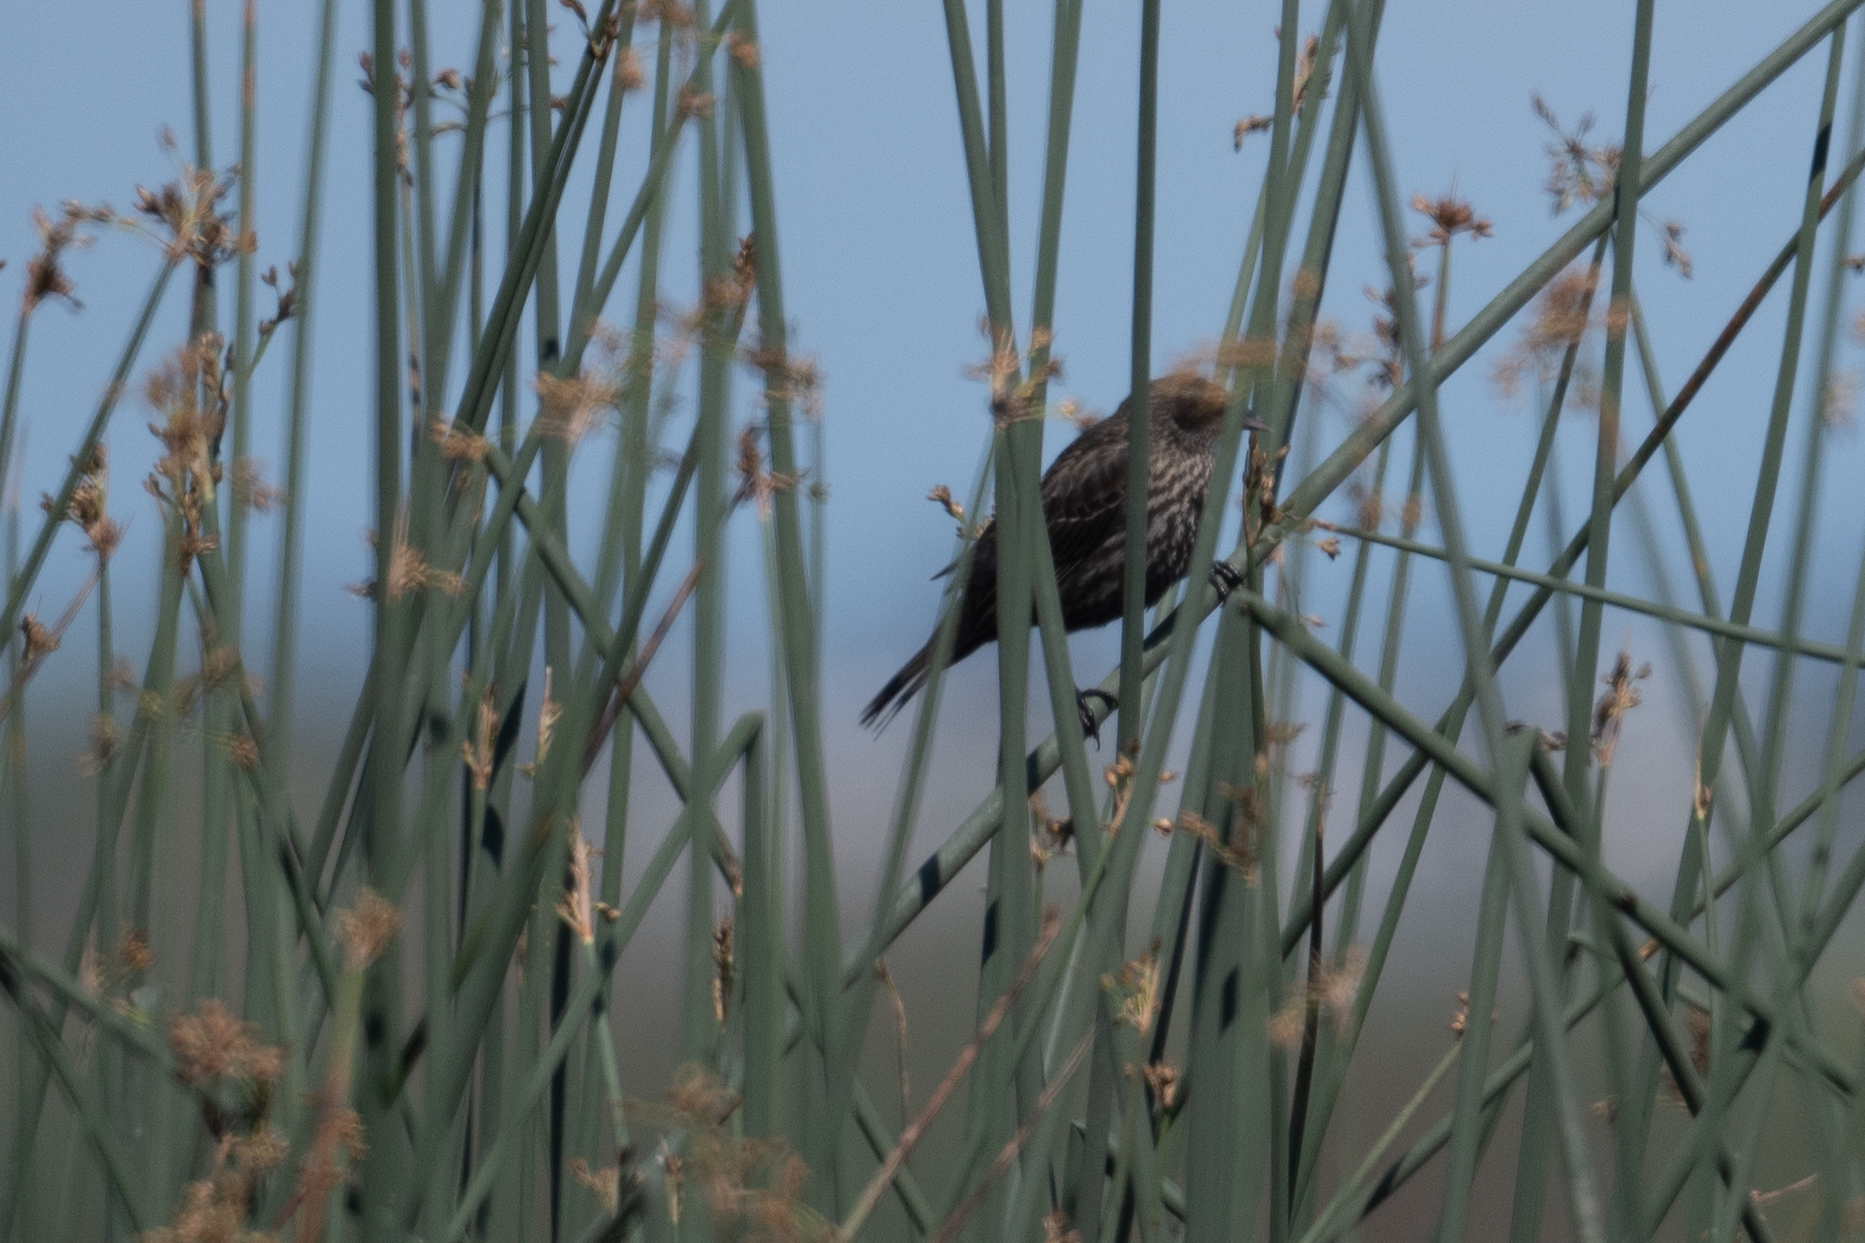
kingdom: Animalia
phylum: Chordata
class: Aves
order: Passeriformes
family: Icteridae
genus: Agelaius
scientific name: Agelaius phoeniceus
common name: Red-winged blackbird
